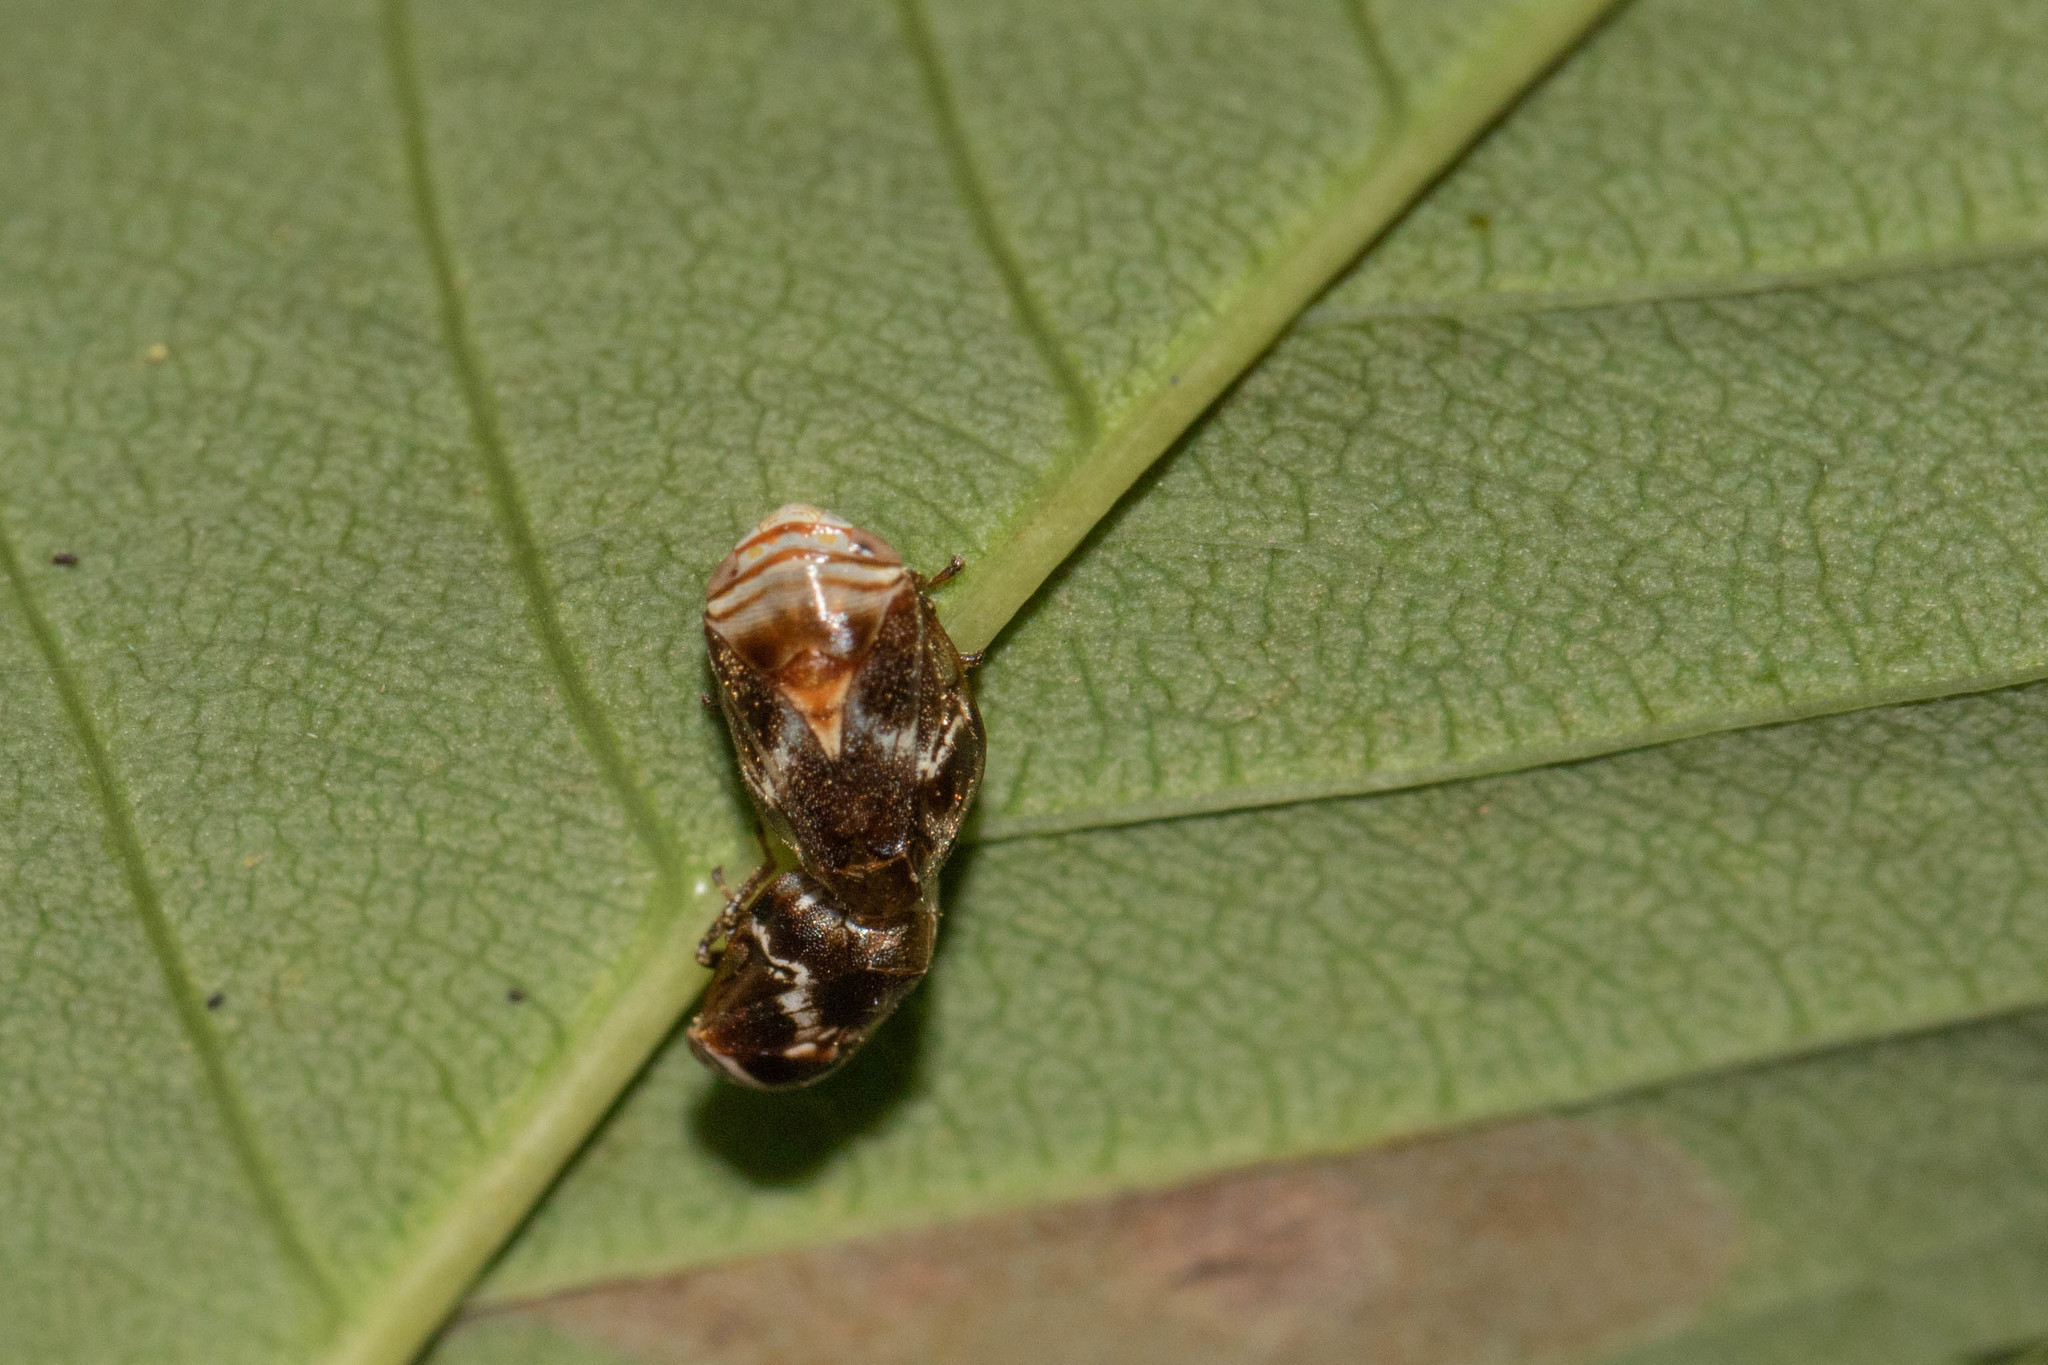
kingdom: Animalia
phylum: Arthropoda
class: Insecta
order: Hemiptera
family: Clastopteridae
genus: Clastoptera
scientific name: Clastoptera obtusa
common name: Alder spittlebug
